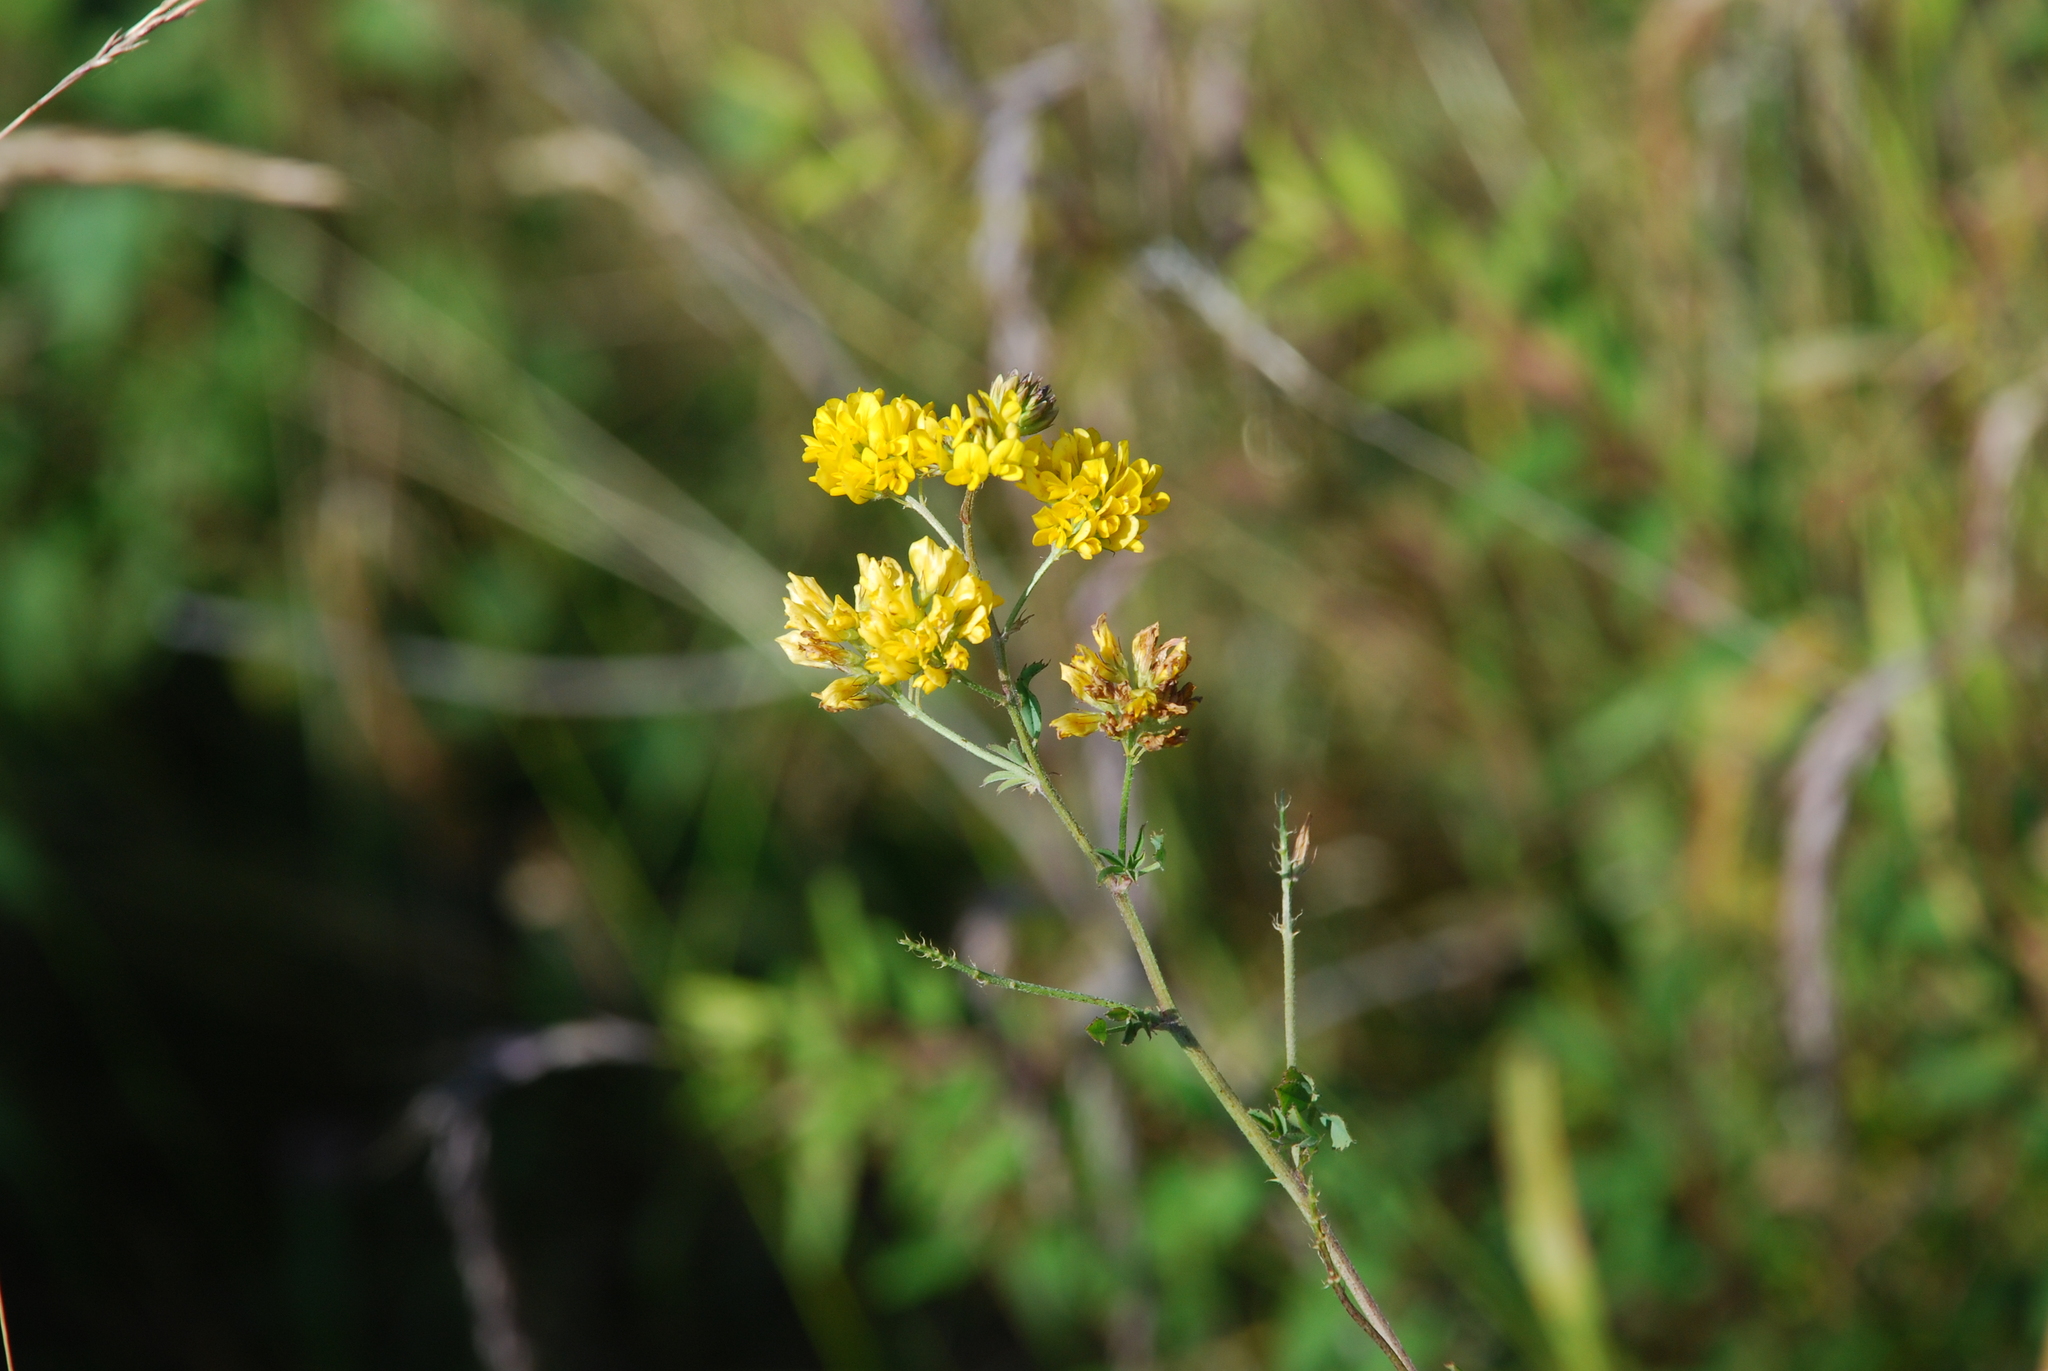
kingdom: Plantae
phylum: Tracheophyta
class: Magnoliopsida
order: Fabales
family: Fabaceae
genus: Medicago
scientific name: Medicago falcata
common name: Sickle medick
